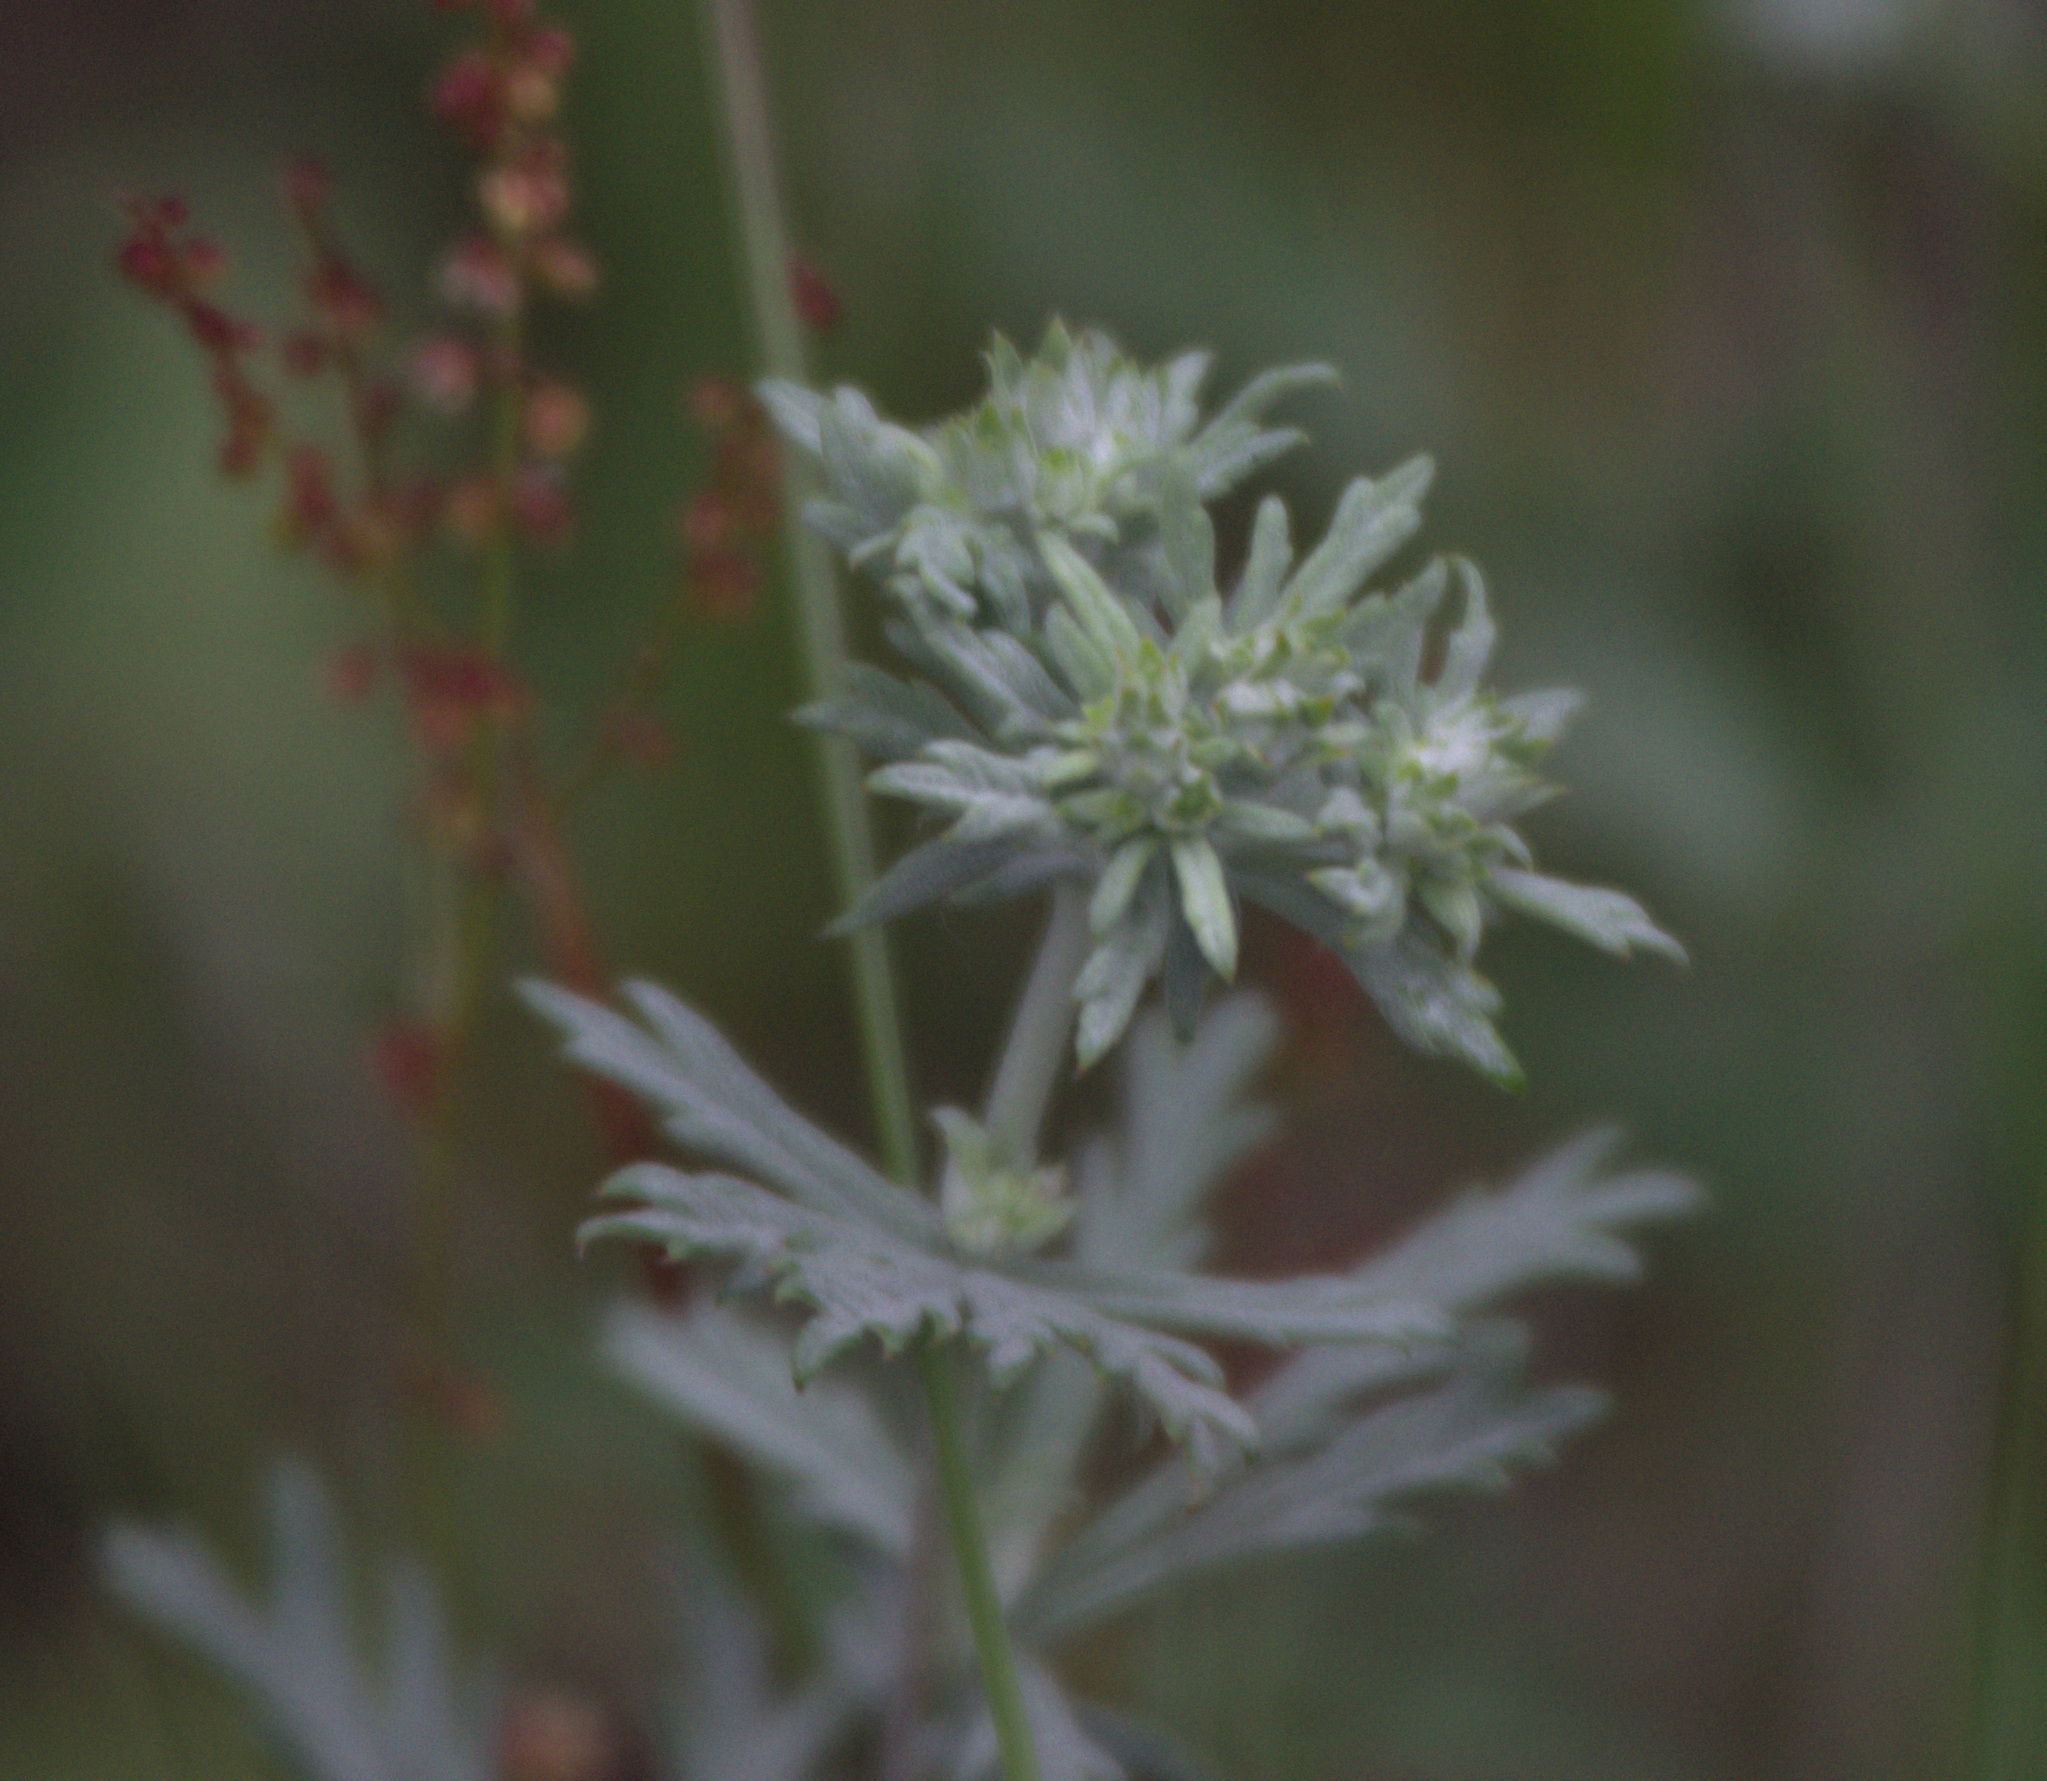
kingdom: Plantae
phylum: Tracheophyta
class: Magnoliopsida
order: Rosales
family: Rosaceae
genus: Potentilla
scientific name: Potentilla argentea
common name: Hoary cinquefoil
